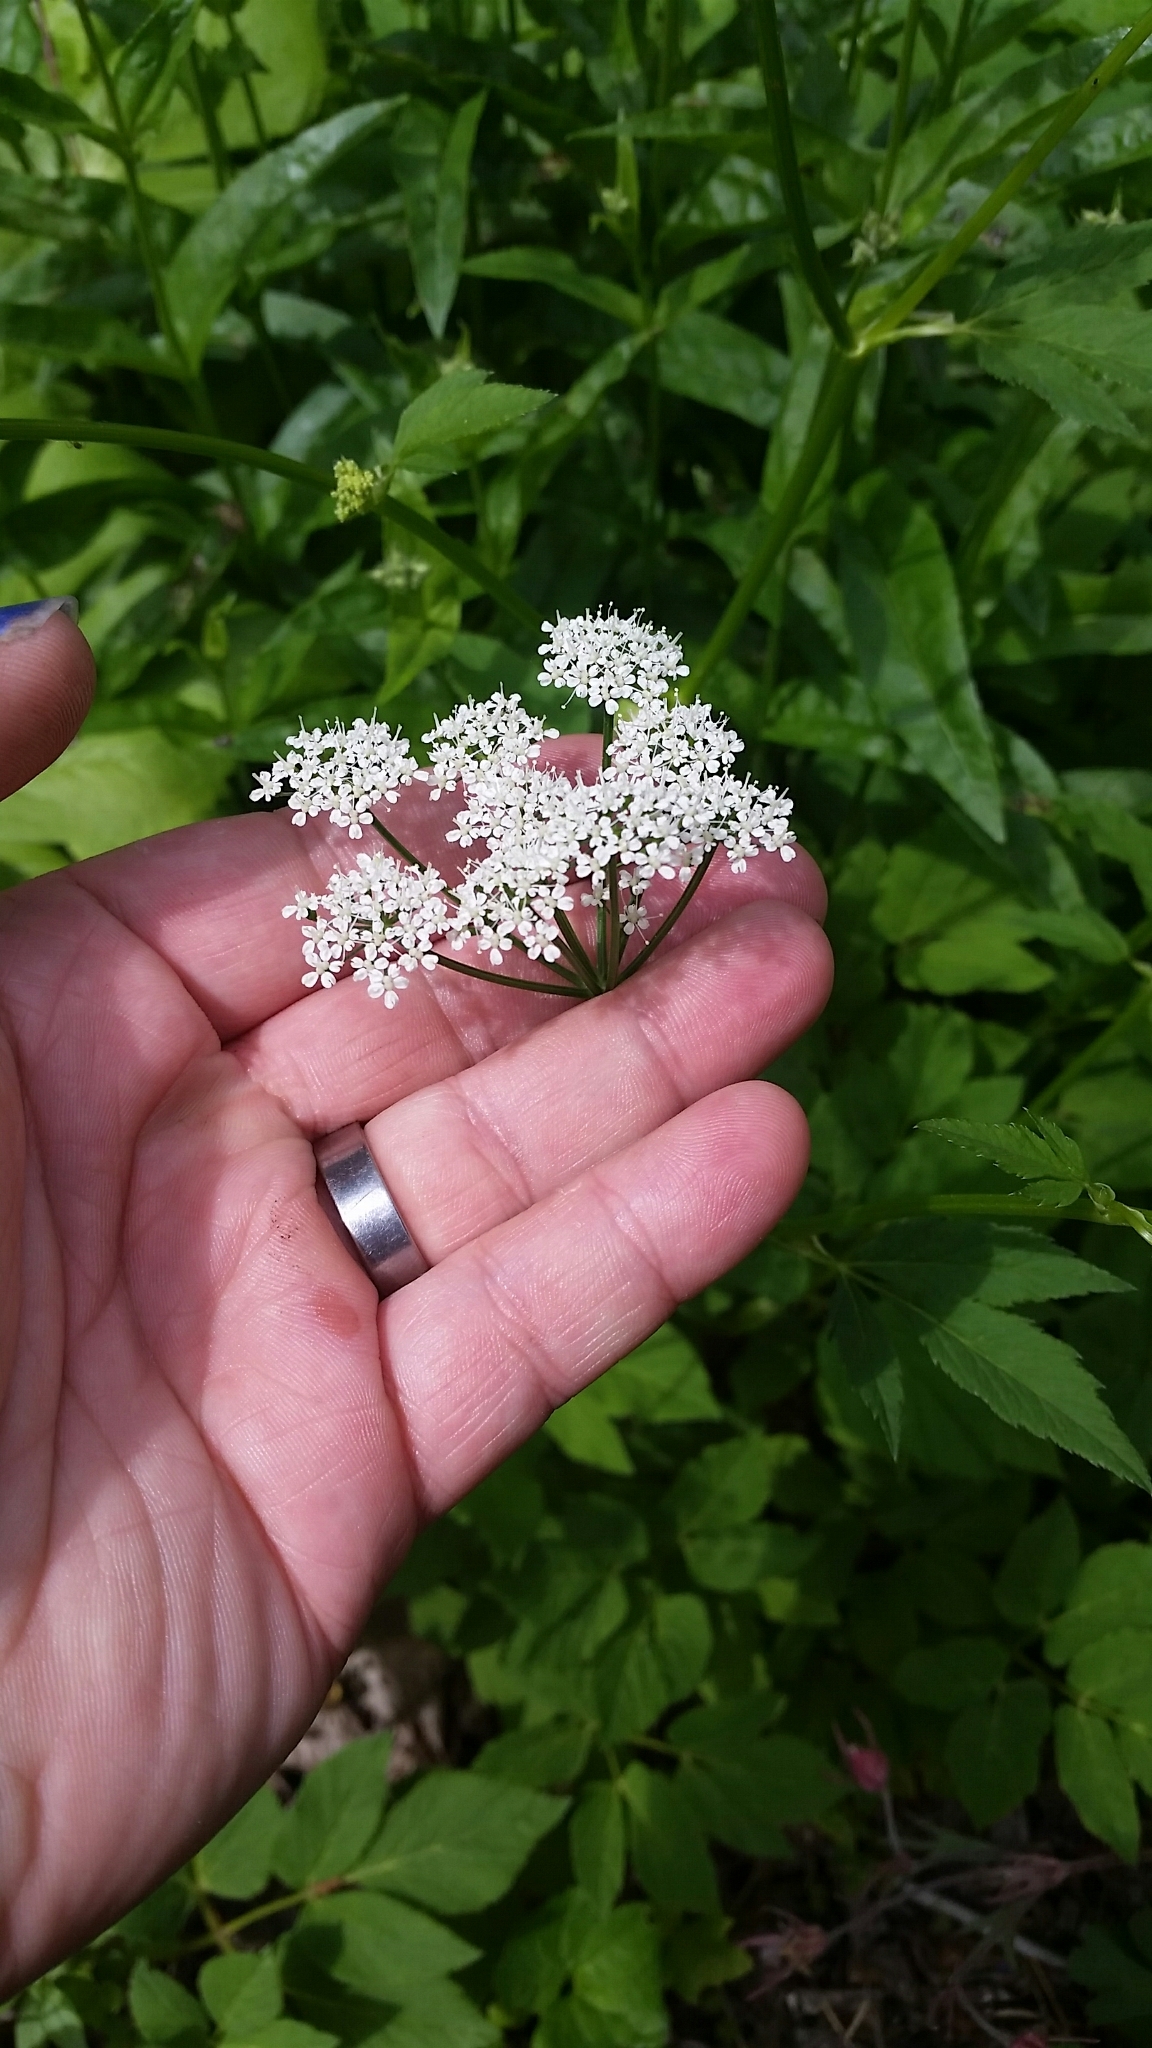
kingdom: Plantae
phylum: Tracheophyta
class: Magnoliopsida
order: Apiales
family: Apiaceae
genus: Aegopodium
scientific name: Aegopodium podagraria
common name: Ground-elder
